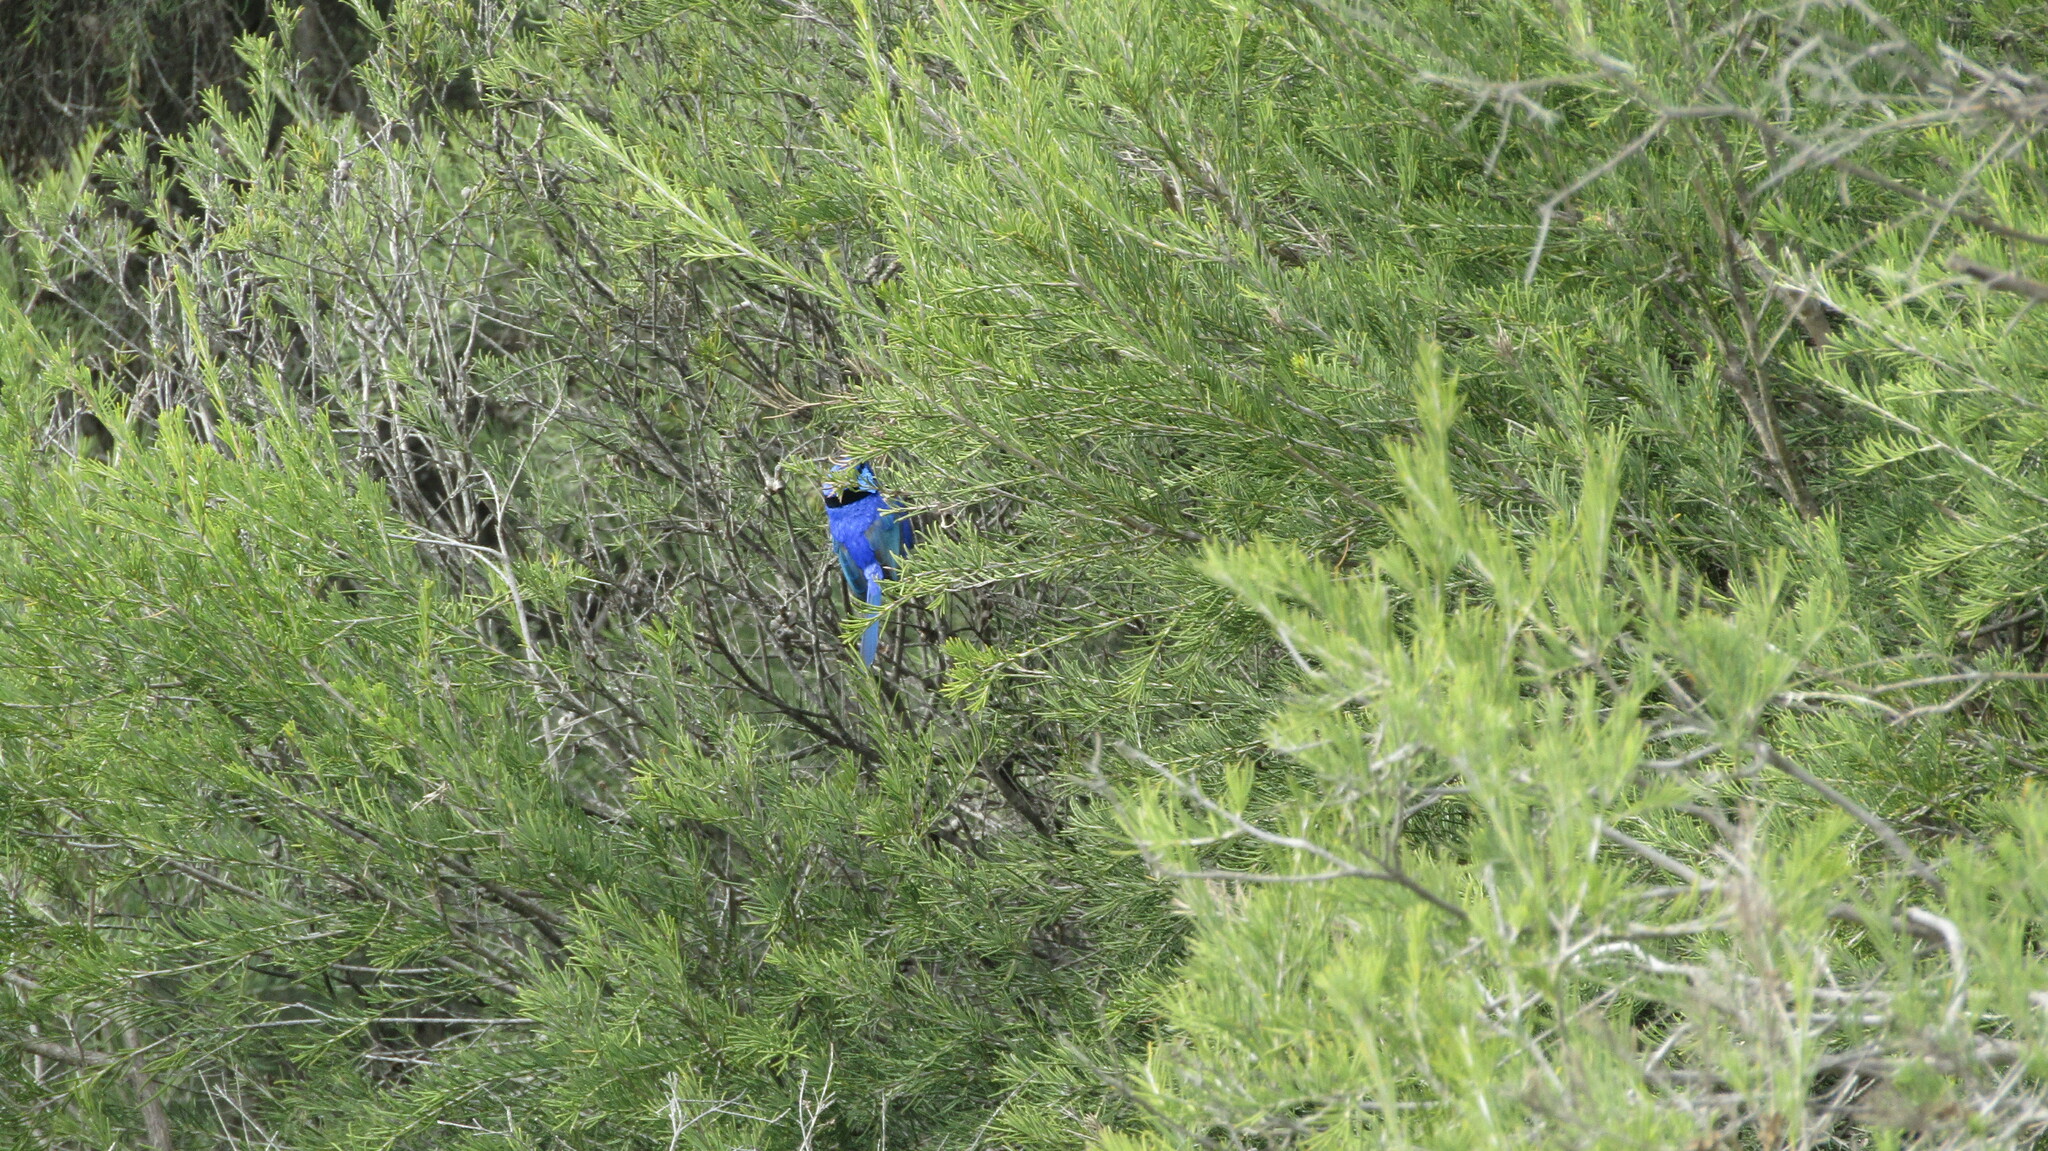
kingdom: Animalia
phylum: Chordata
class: Aves
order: Passeriformes
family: Maluridae
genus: Malurus
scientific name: Malurus splendens
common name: Splendid fairywren
